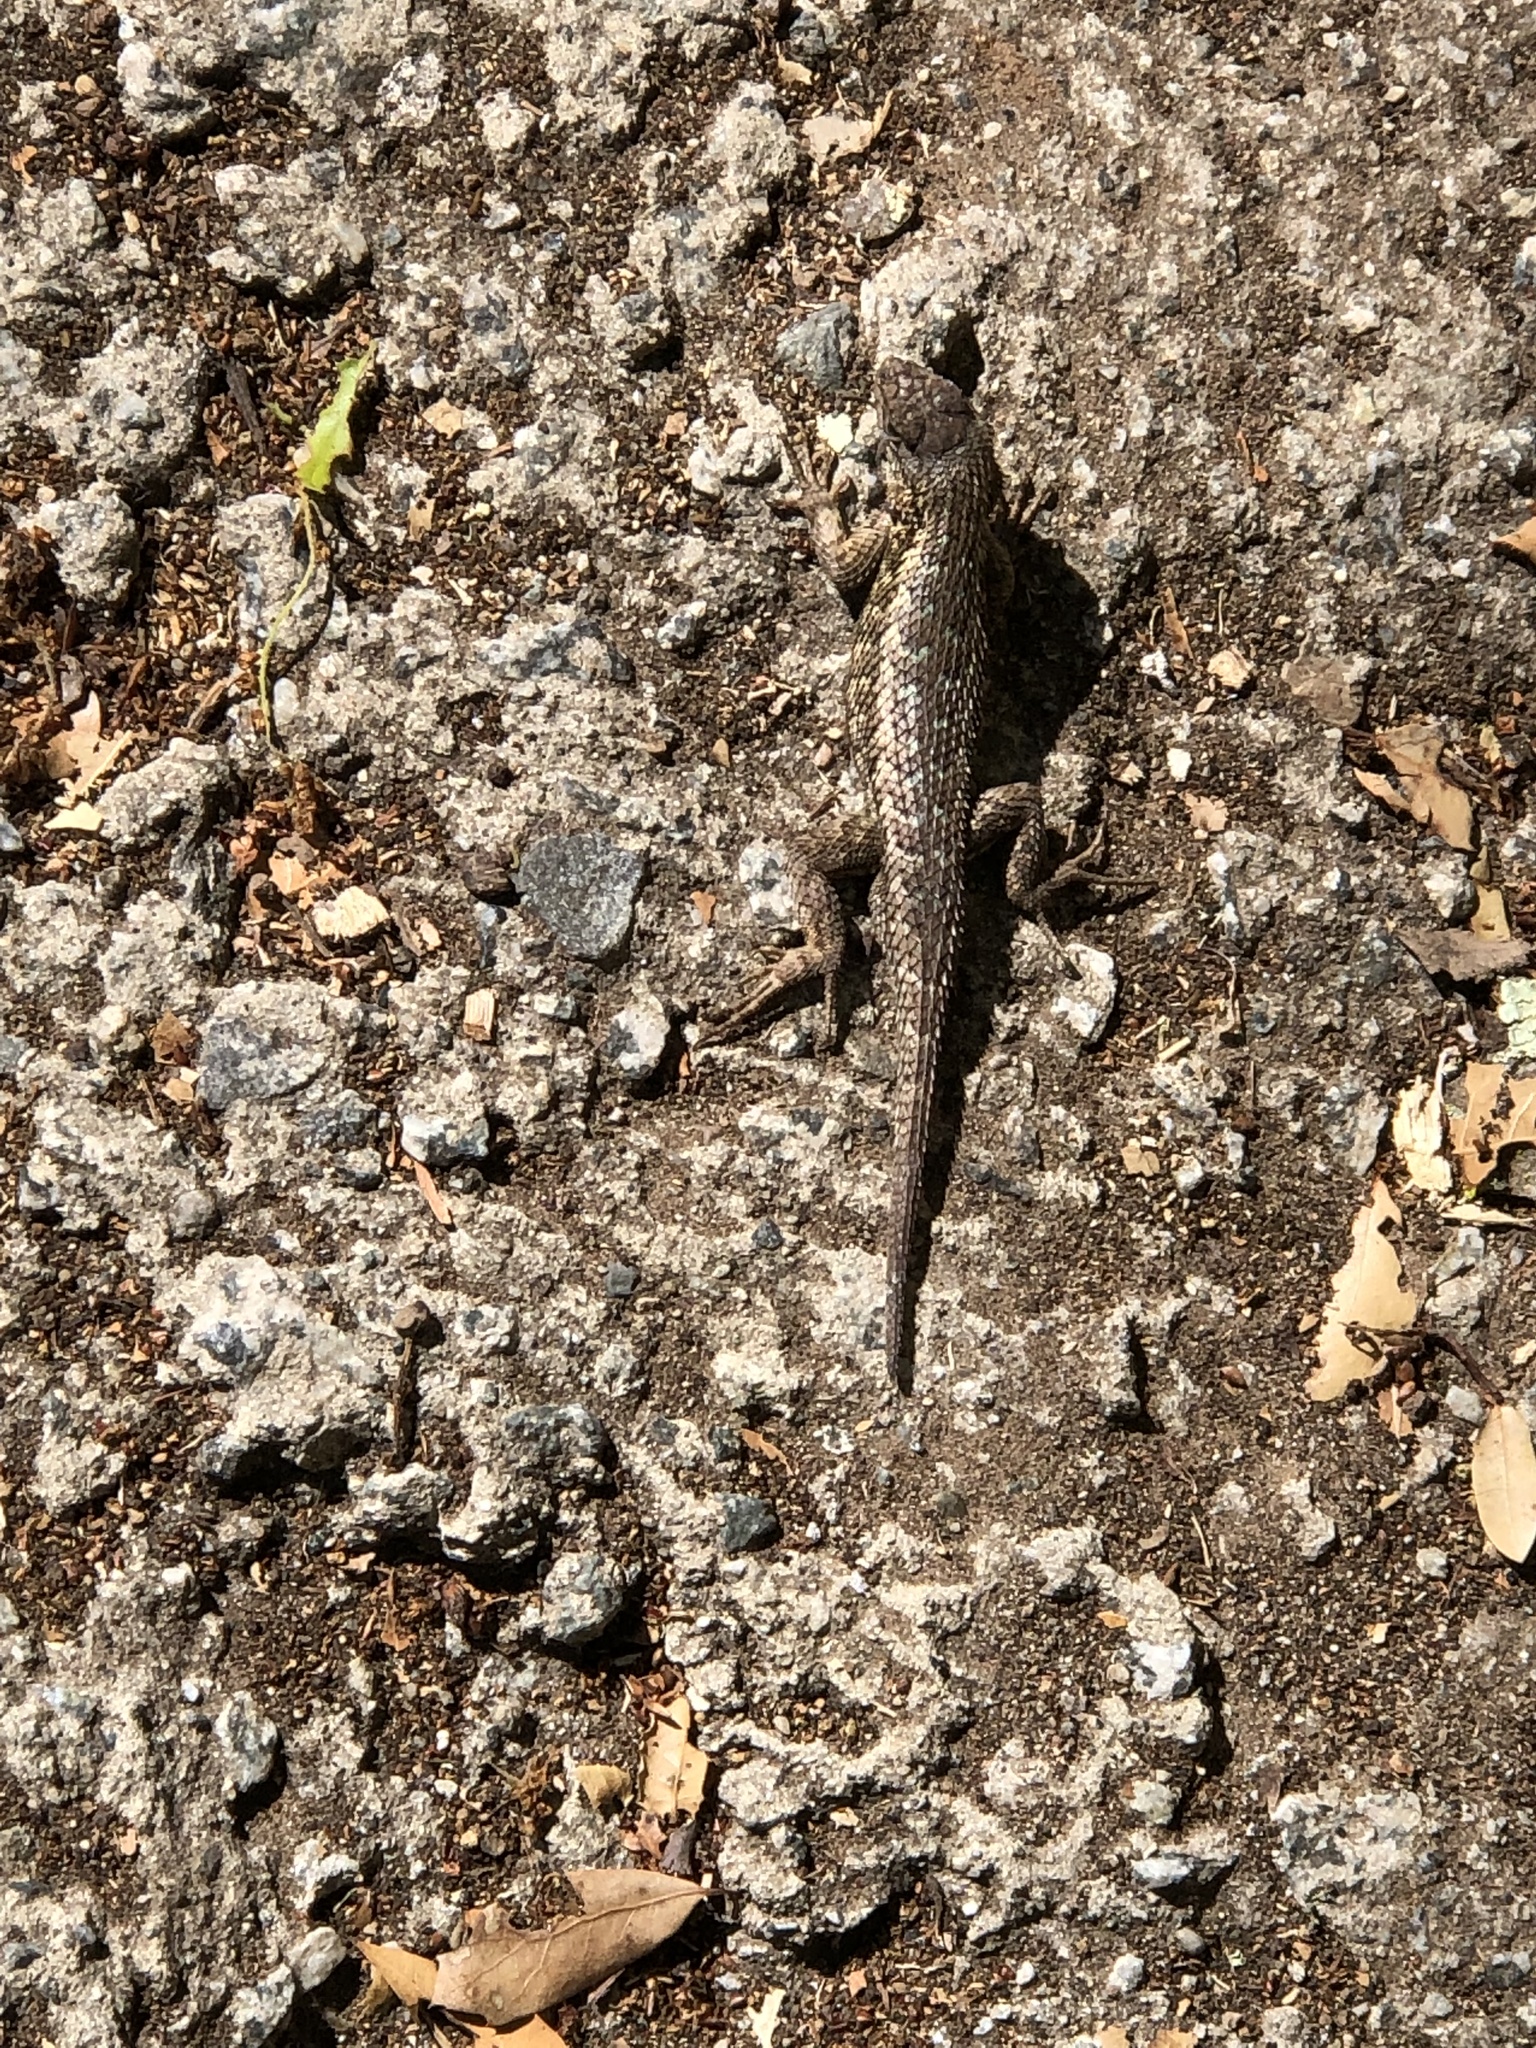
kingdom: Animalia
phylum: Chordata
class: Squamata
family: Phrynosomatidae
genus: Sceloporus
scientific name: Sceloporus occidentalis
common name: Western fence lizard
